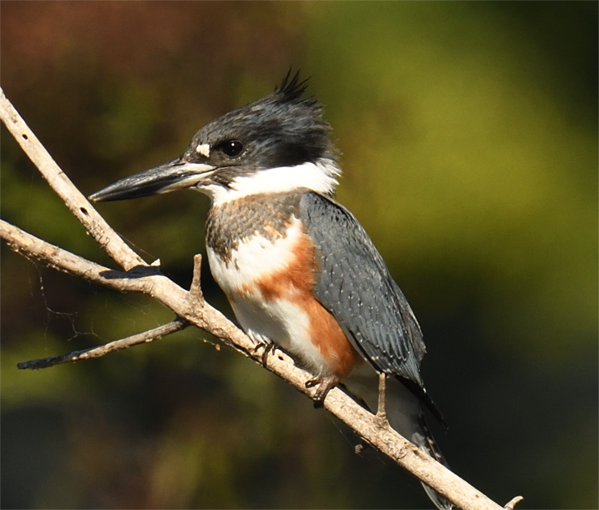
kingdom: Animalia
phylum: Chordata
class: Aves
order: Coraciiformes
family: Alcedinidae
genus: Megaceryle
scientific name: Megaceryle alcyon
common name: Belted kingfisher
